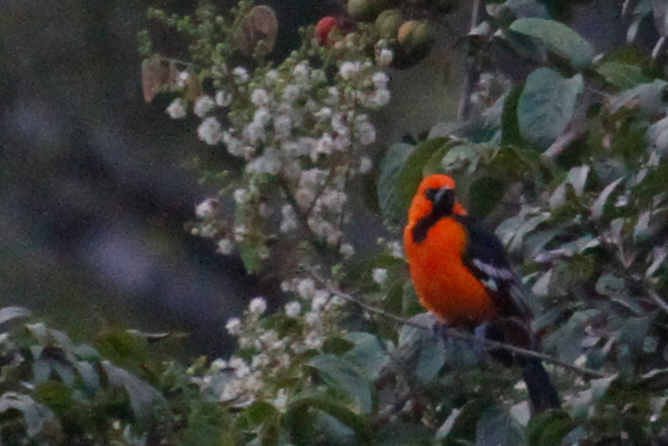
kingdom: Animalia
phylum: Chordata
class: Aves
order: Passeriformes
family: Icteridae
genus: Icterus
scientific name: Icterus gularis
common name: Altamira oriole
